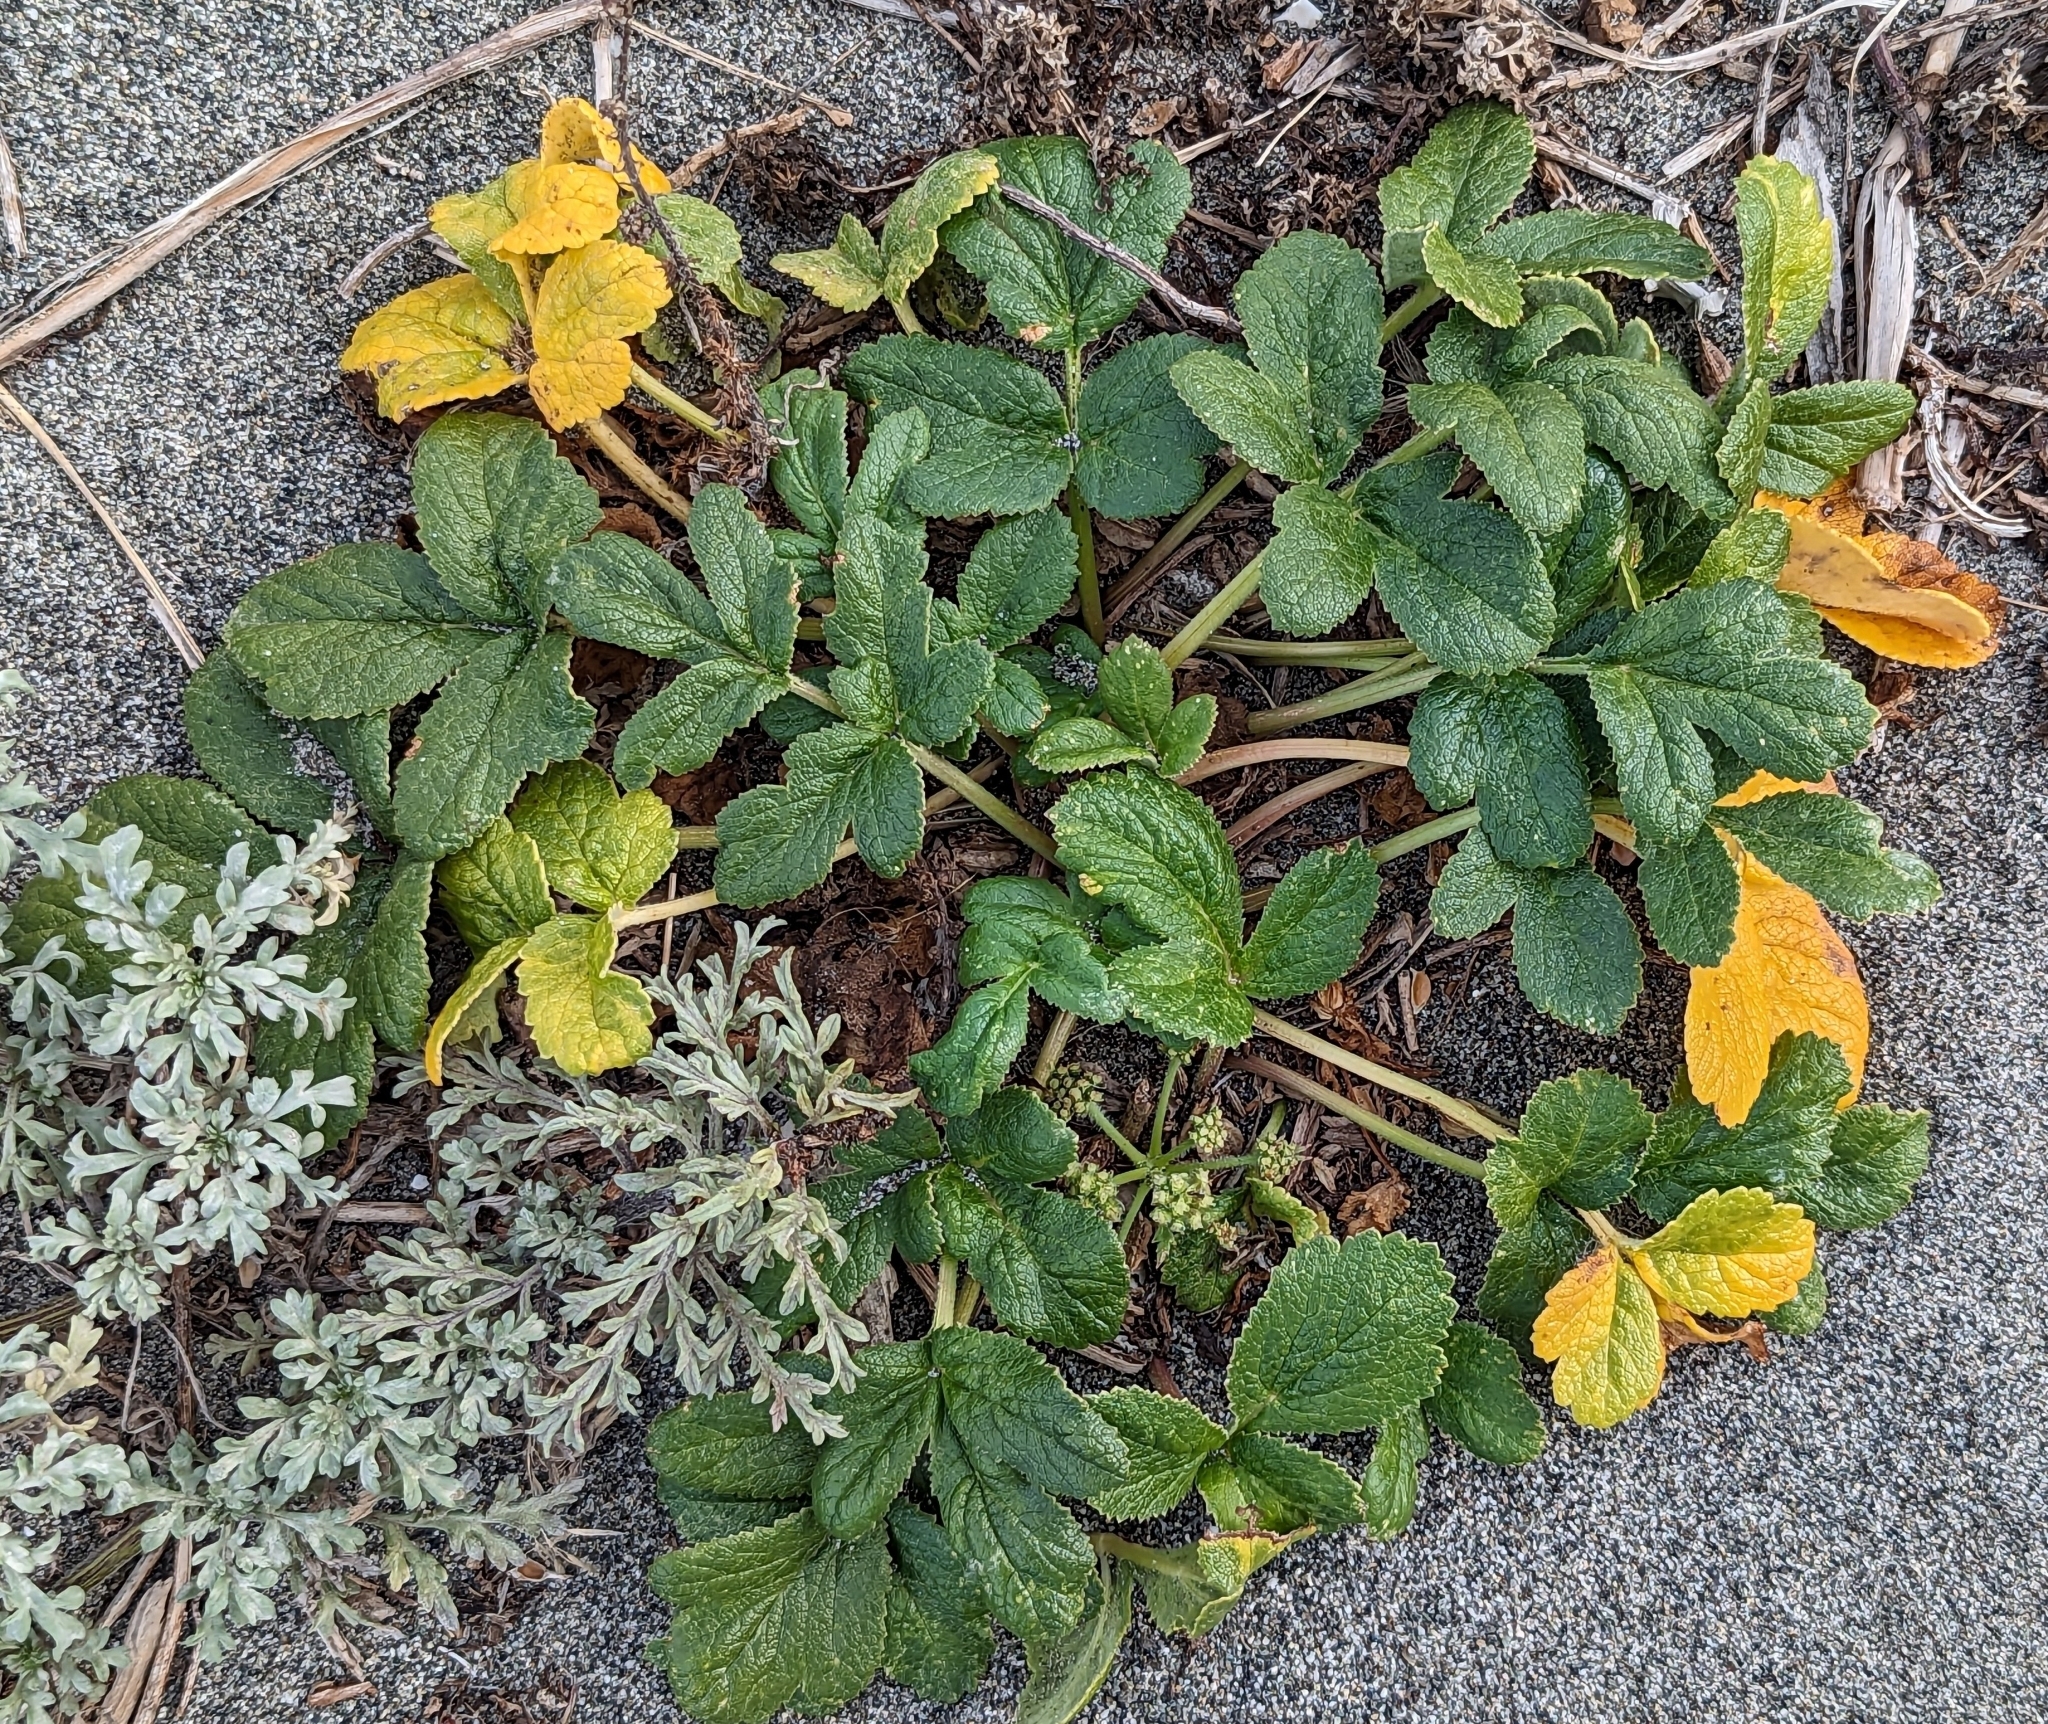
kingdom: Plantae
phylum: Tracheophyta
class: Magnoliopsida
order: Apiales
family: Apiaceae
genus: Angelica
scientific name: Angelica leiocarpa
